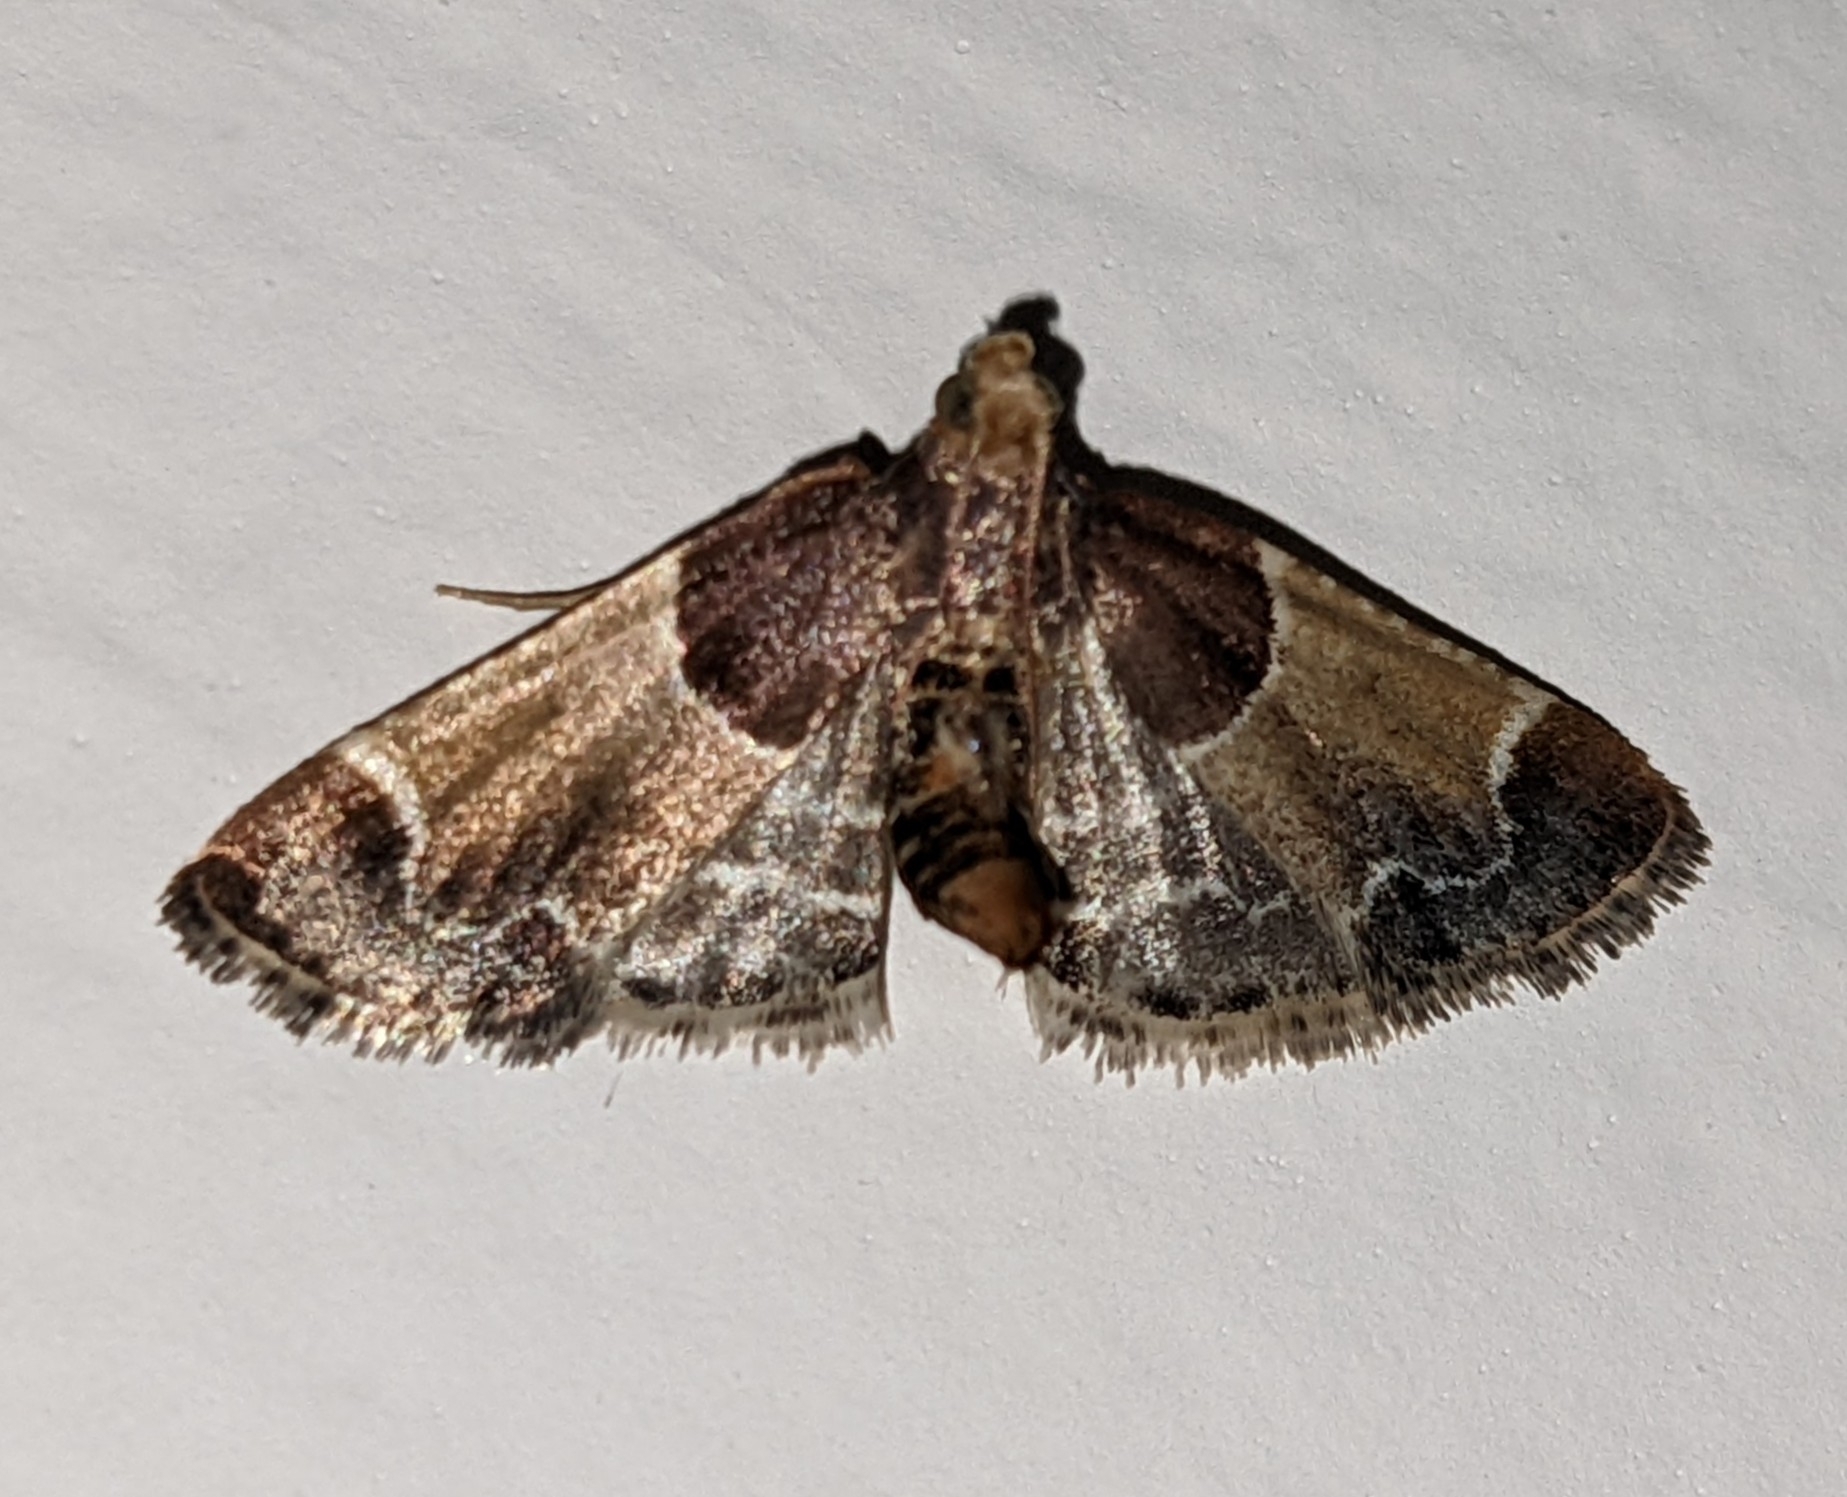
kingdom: Animalia
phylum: Arthropoda
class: Insecta
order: Lepidoptera
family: Pyralidae
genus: Pyralis
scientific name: Pyralis farinalis
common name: Meal moth
